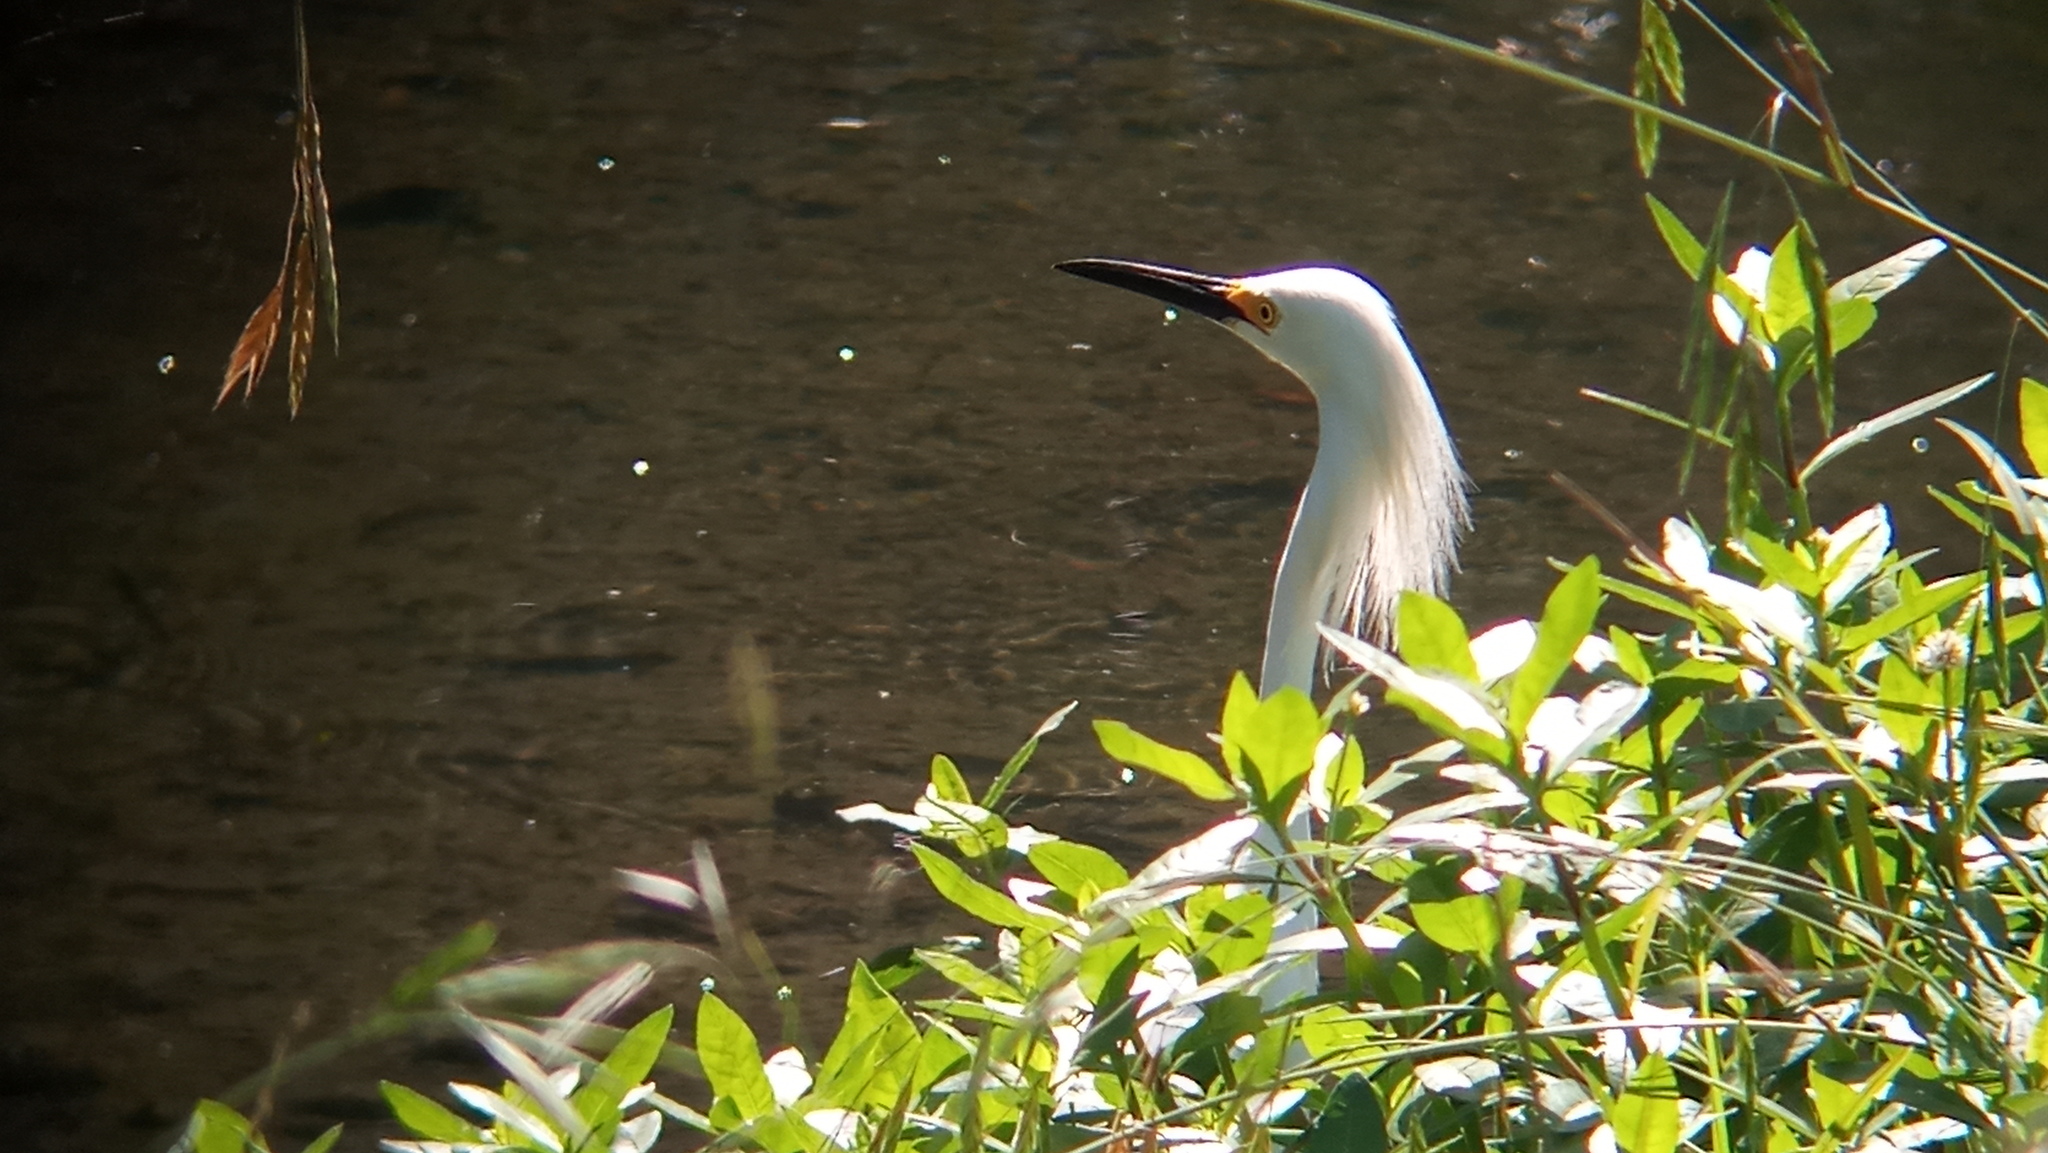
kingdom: Animalia
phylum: Chordata
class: Aves
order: Pelecaniformes
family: Ardeidae
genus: Egretta
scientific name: Egretta thula
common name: Snowy egret
